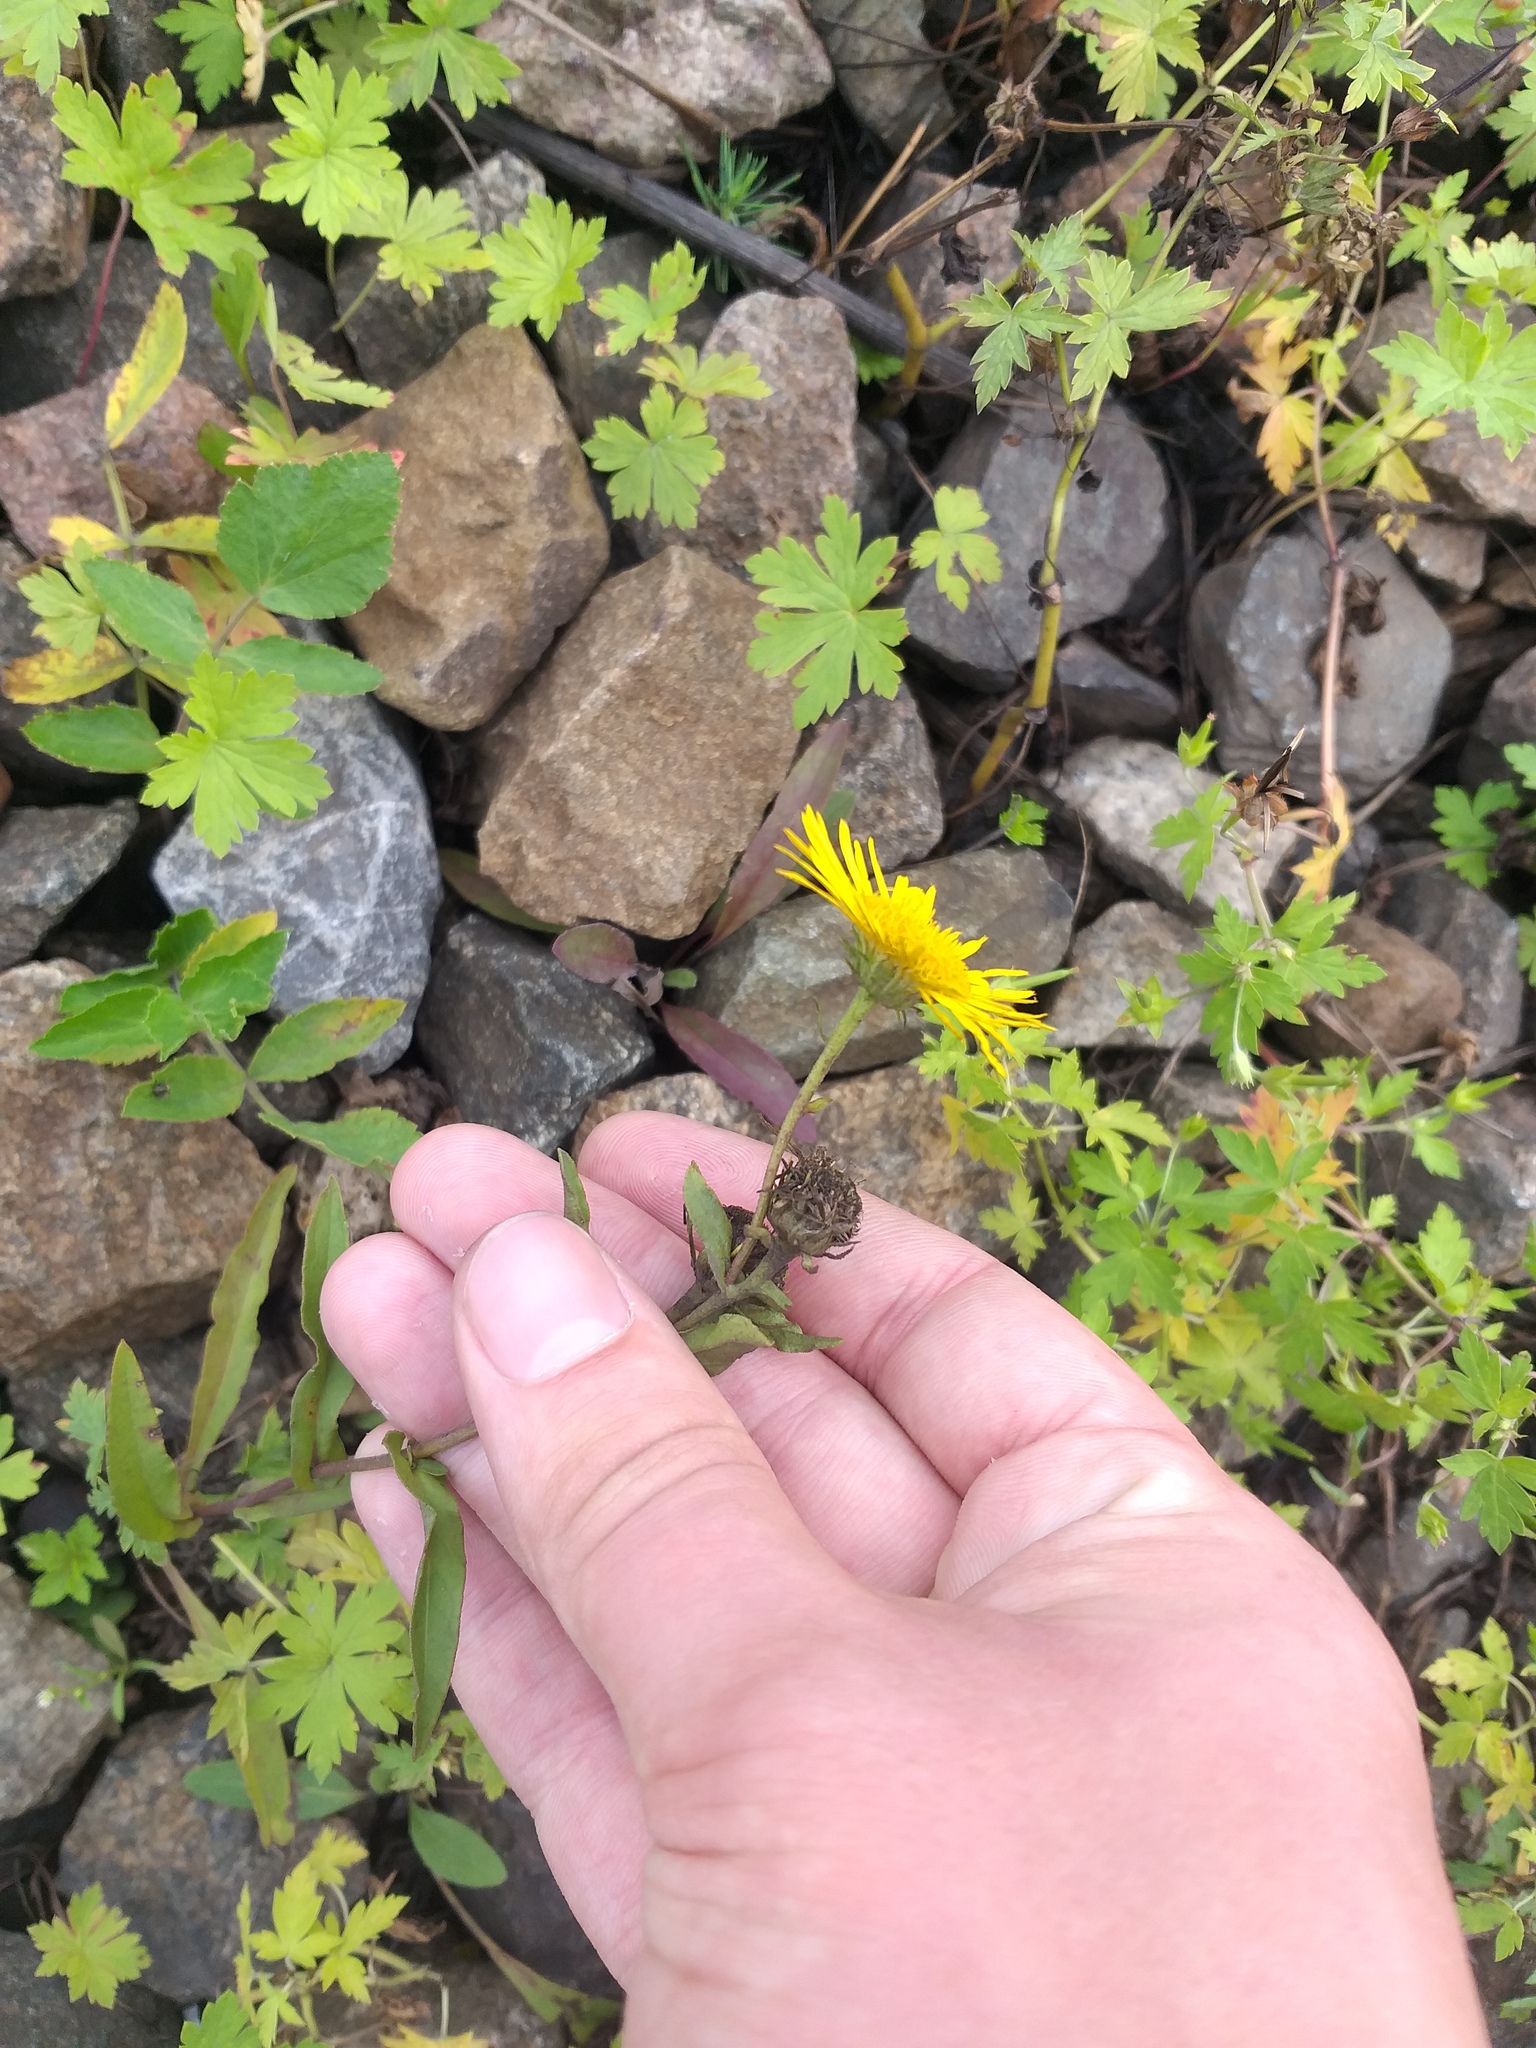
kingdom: Plantae
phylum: Tracheophyta
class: Magnoliopsida
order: Asterales
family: Asteraceae
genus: Pentanema
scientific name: Pentanema britannicum
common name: British elecampane
